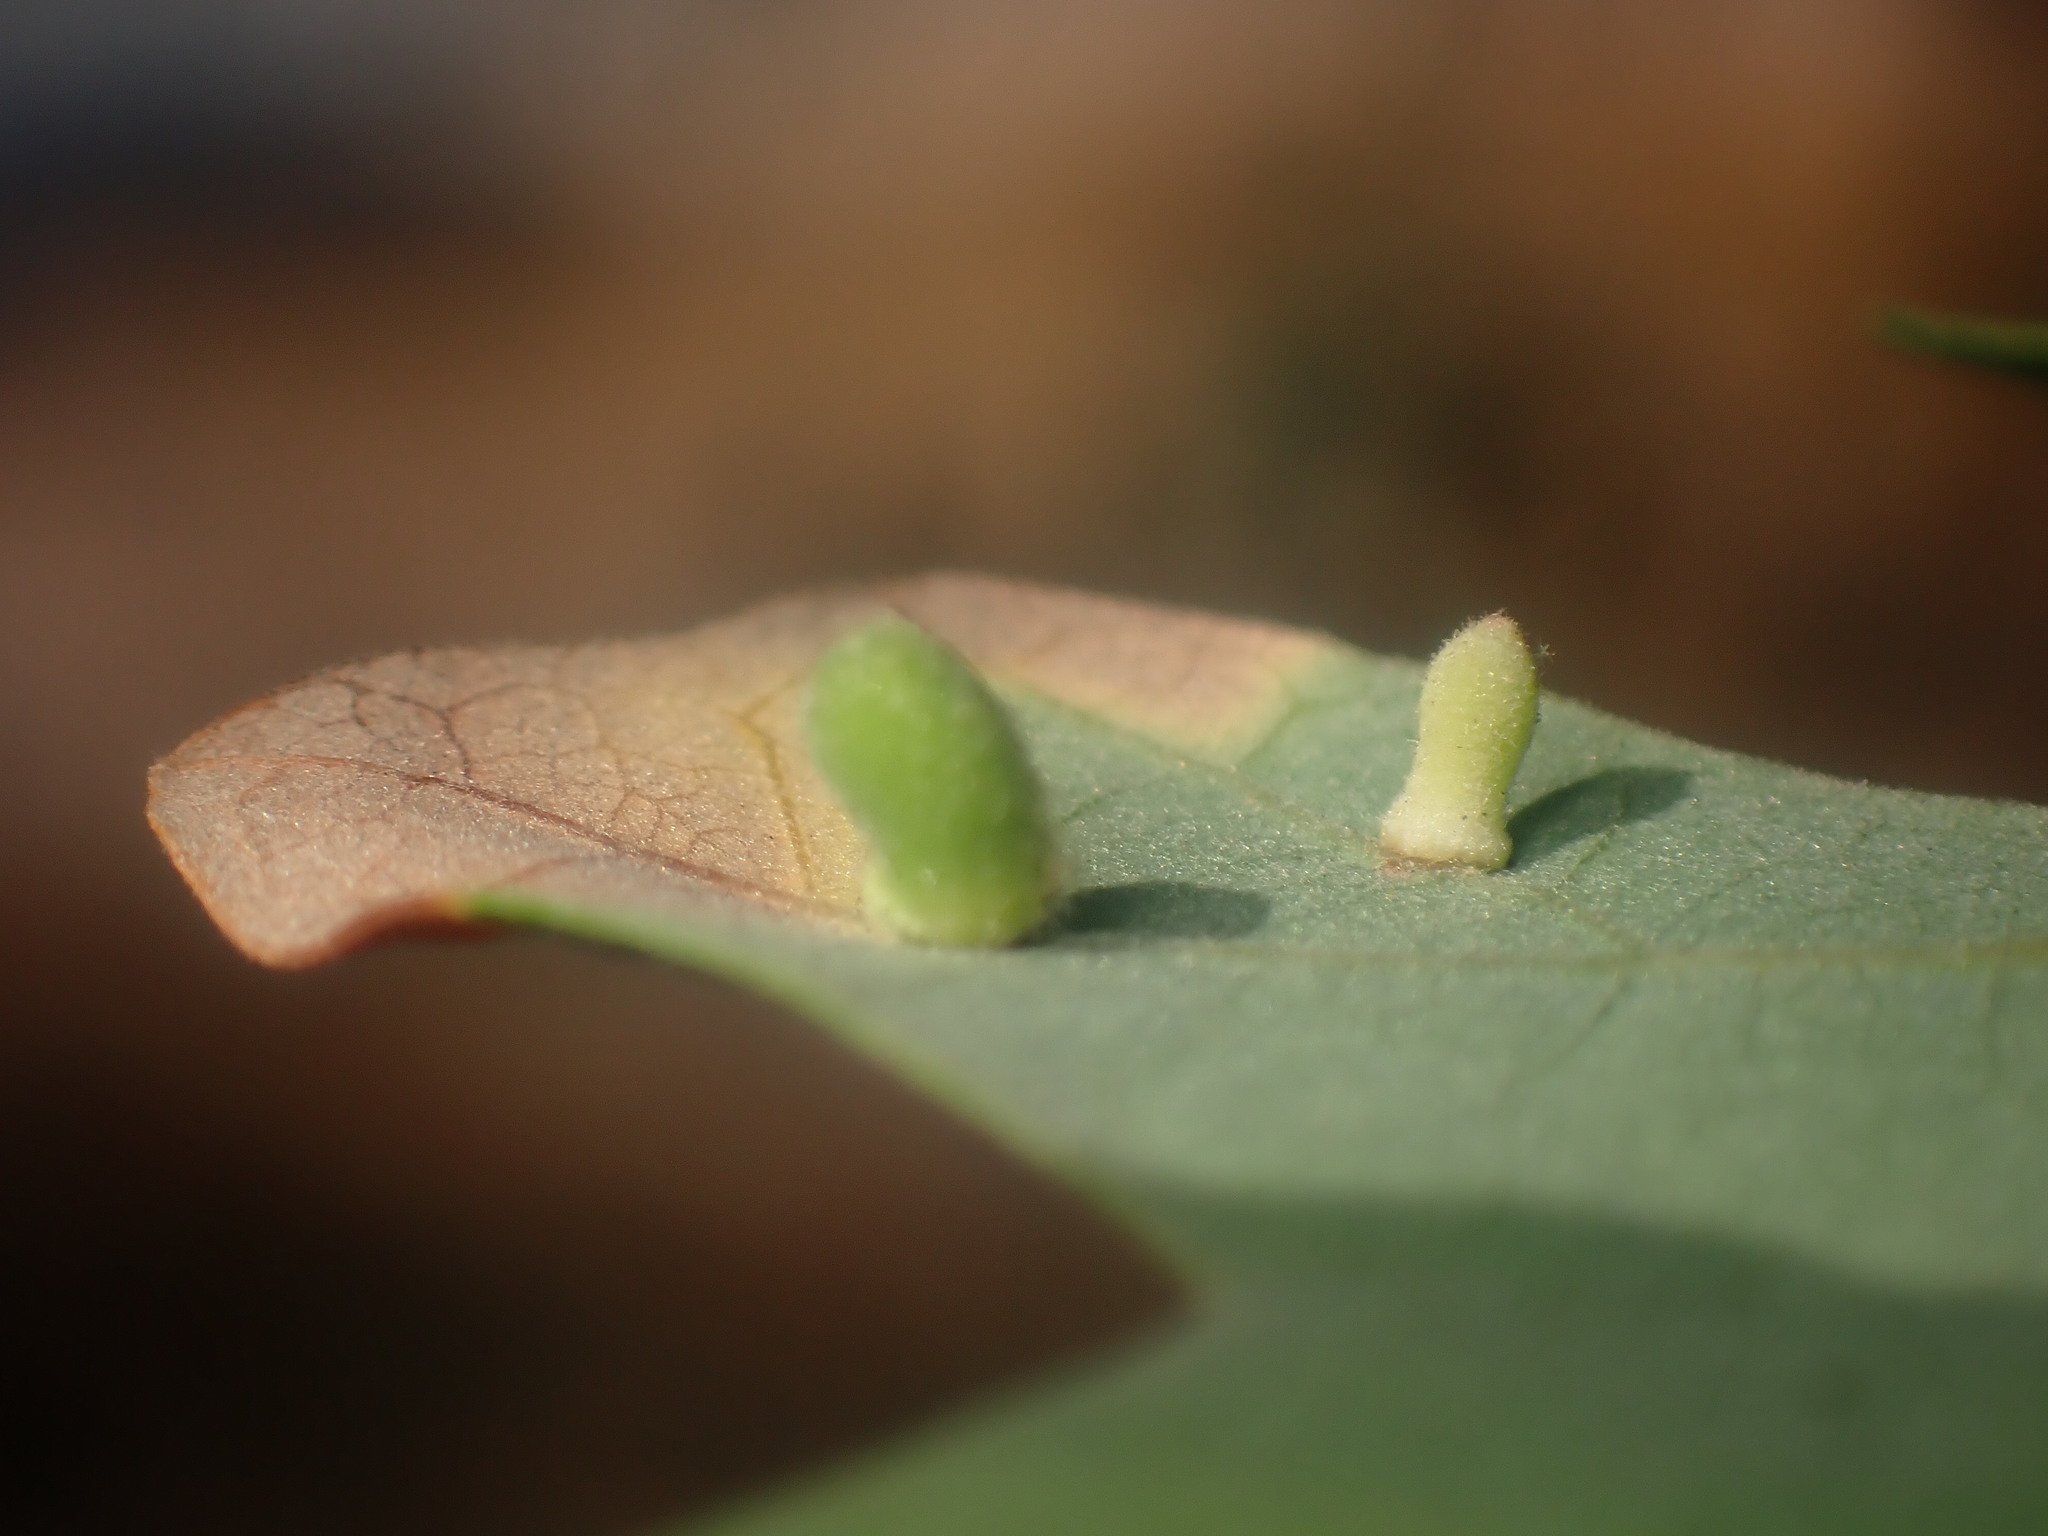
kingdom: Animalia
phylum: Arthropoda
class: Insecta
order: Hymenoptera
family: Cynipidae
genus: Atrusca
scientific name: Atrusca
